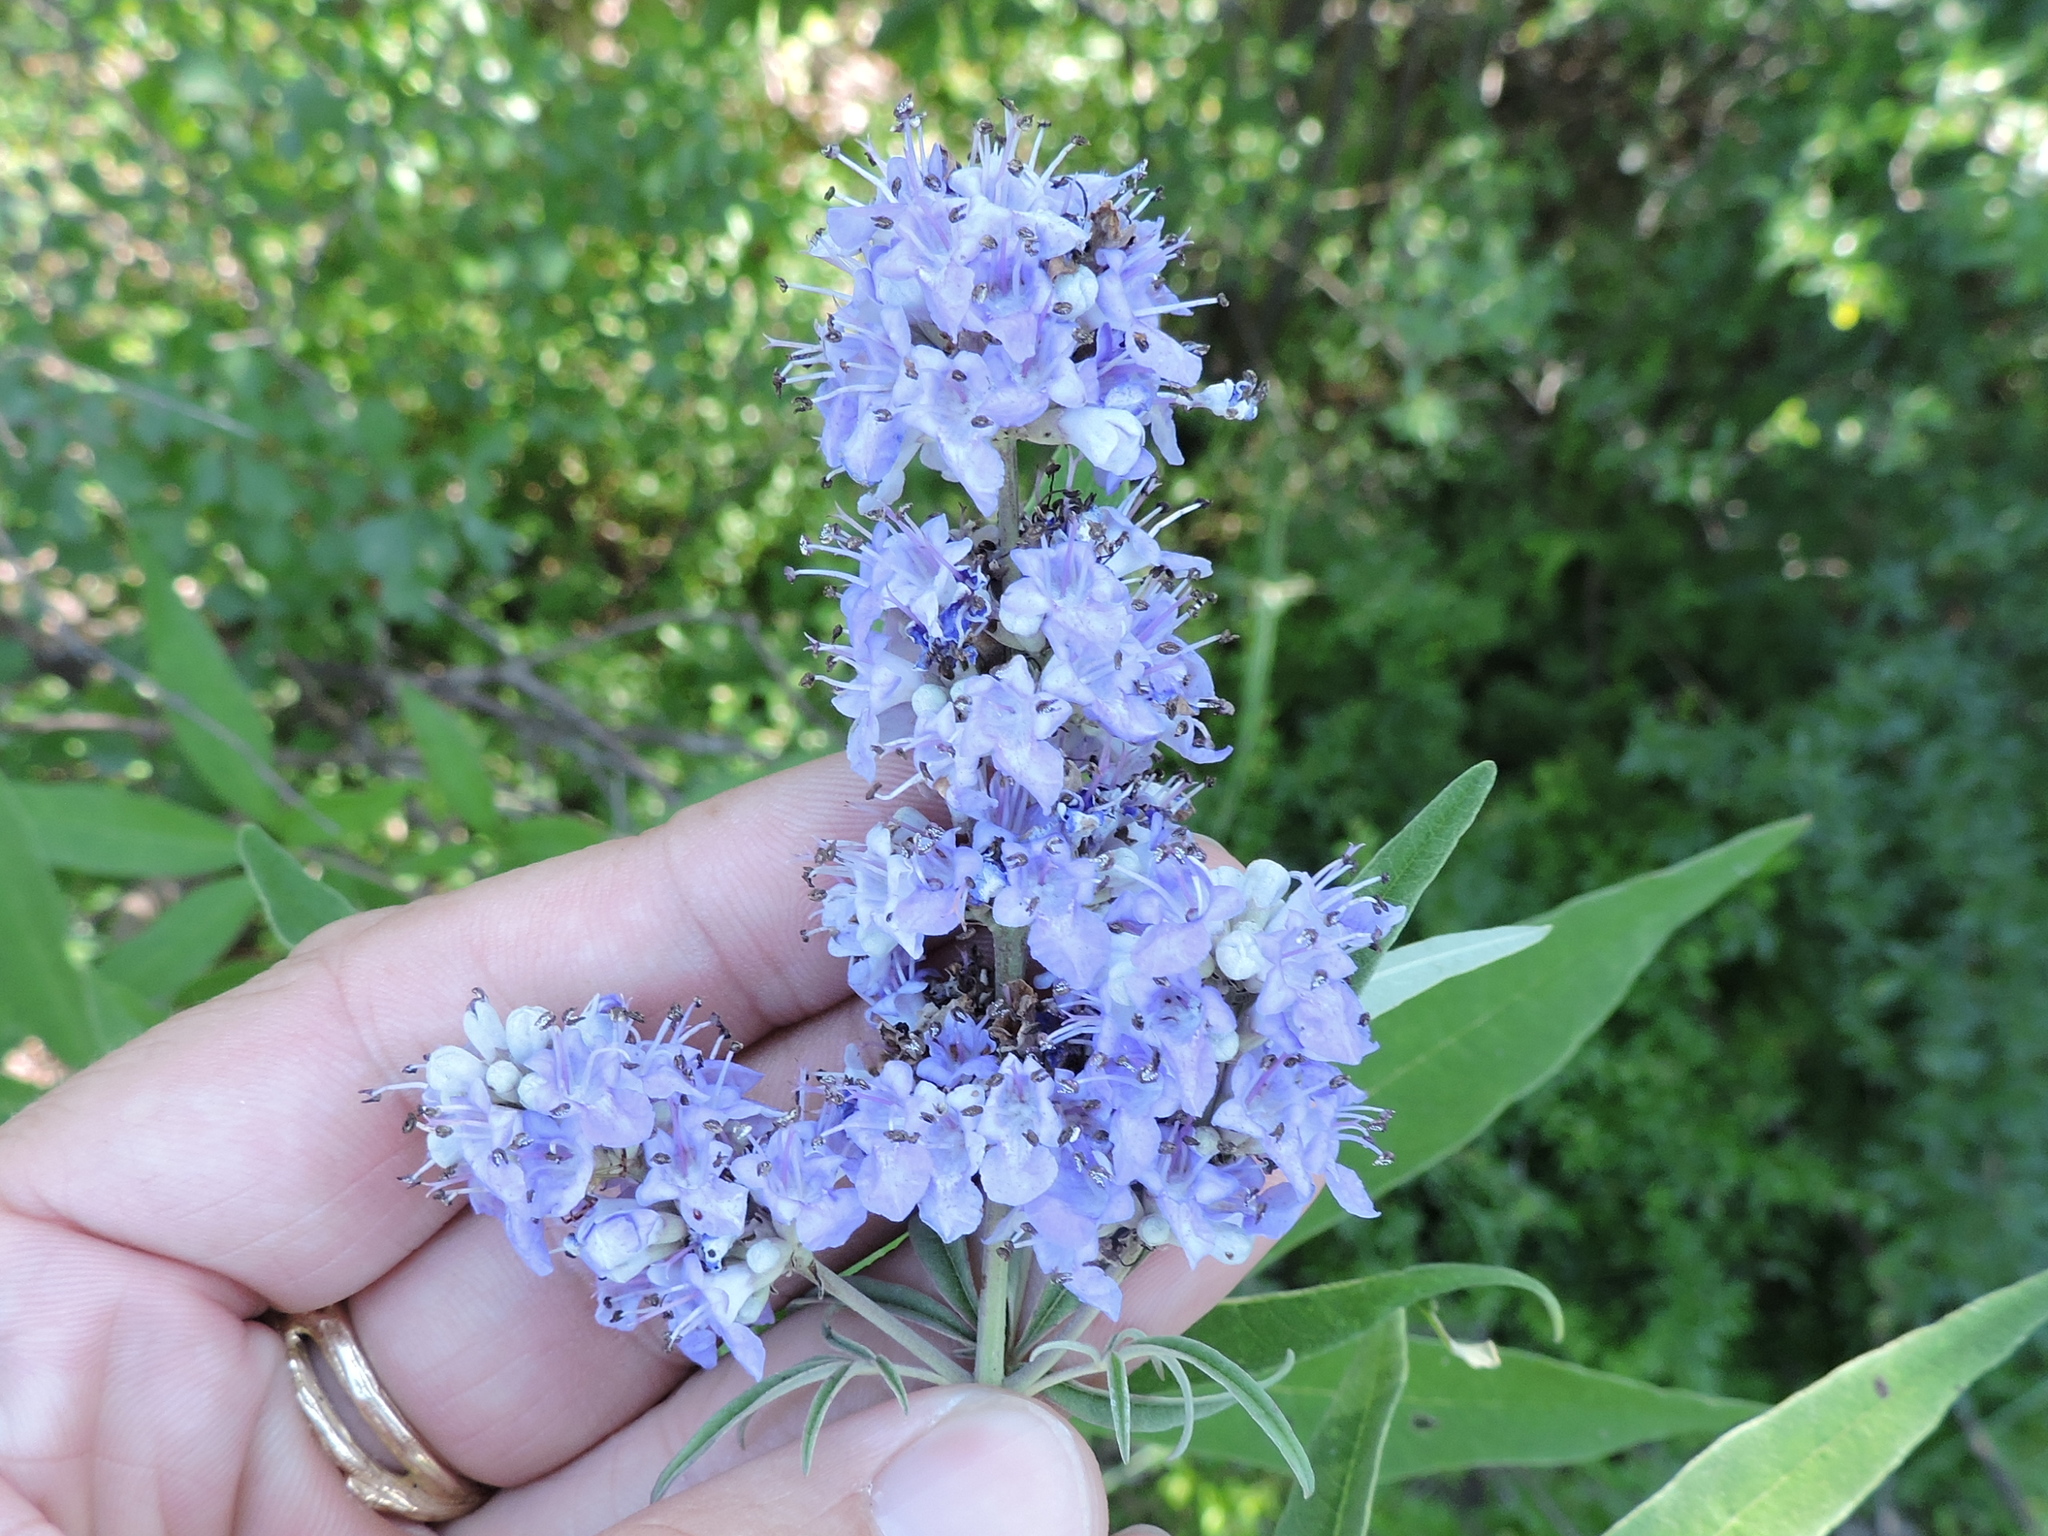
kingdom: Plantae
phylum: Tracheophyta
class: Magnoliopsida
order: Lamiales
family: Lamiaceae
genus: Vitex
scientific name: Vitex agnus-castus
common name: Chasteberry
